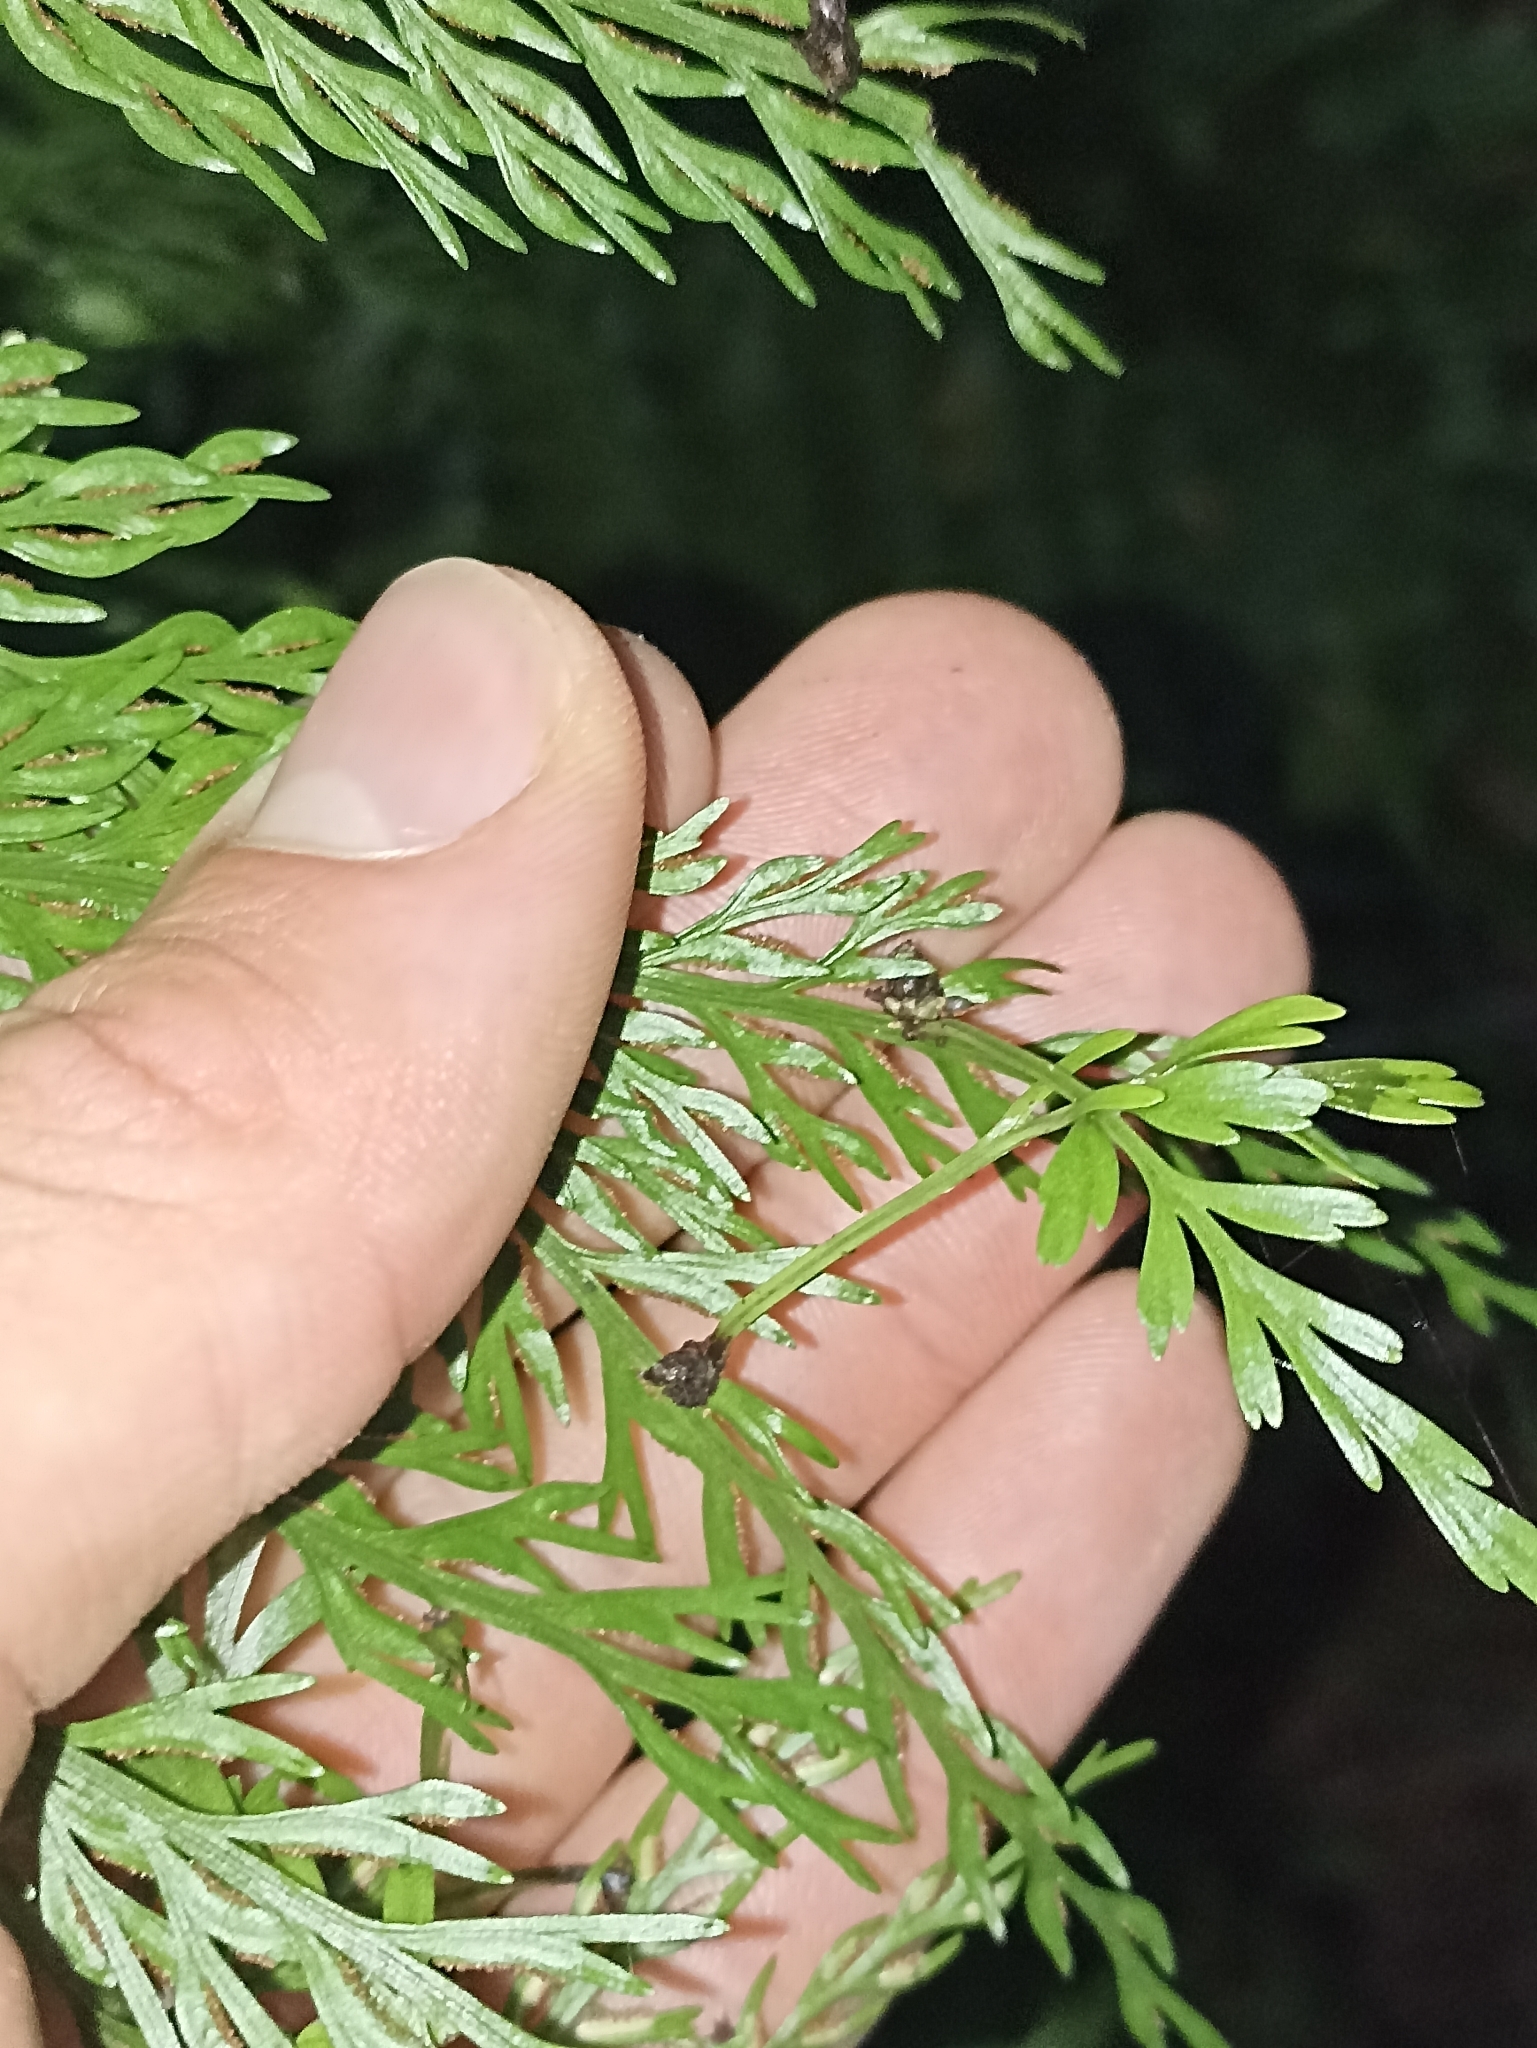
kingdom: Plantae
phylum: Tracheophyta
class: Polypodiopsida
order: Polypodiales
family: Aspleniaceae
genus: Asplenium
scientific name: Asplenium lucrosum
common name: False hen-and-chickens fern
